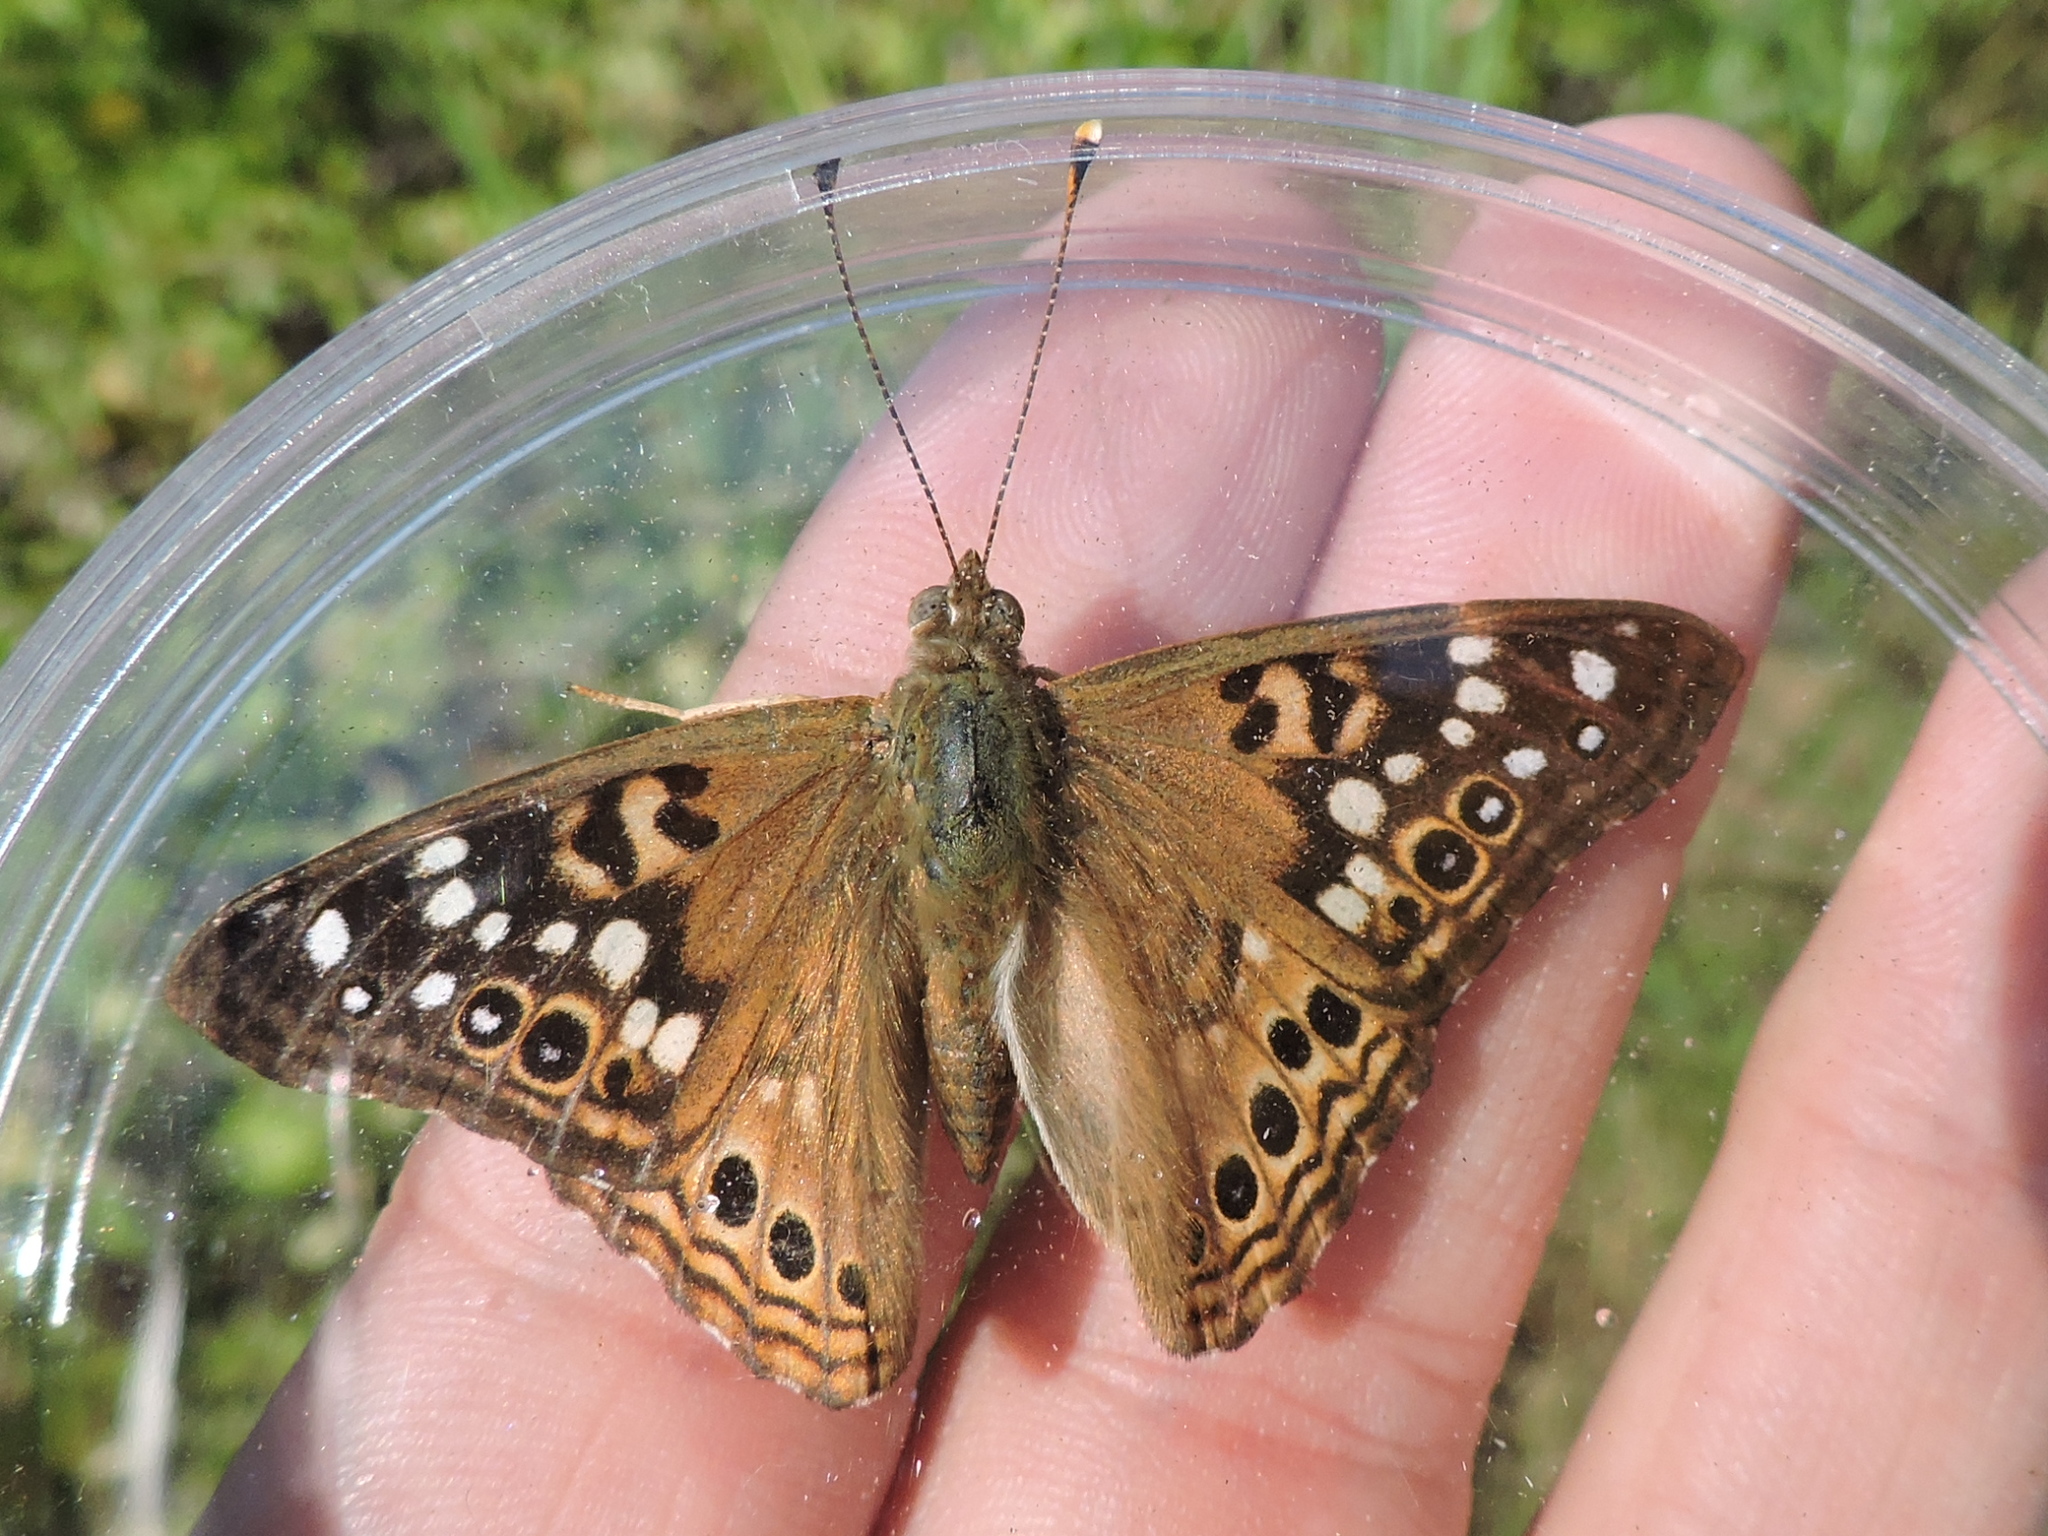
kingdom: Animalia
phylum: Arthropoda
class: Insecta
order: Lepidoptera
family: Nymphalidae
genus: Asterocampa
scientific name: Asterocampa celtis
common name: Hackberry emperor
